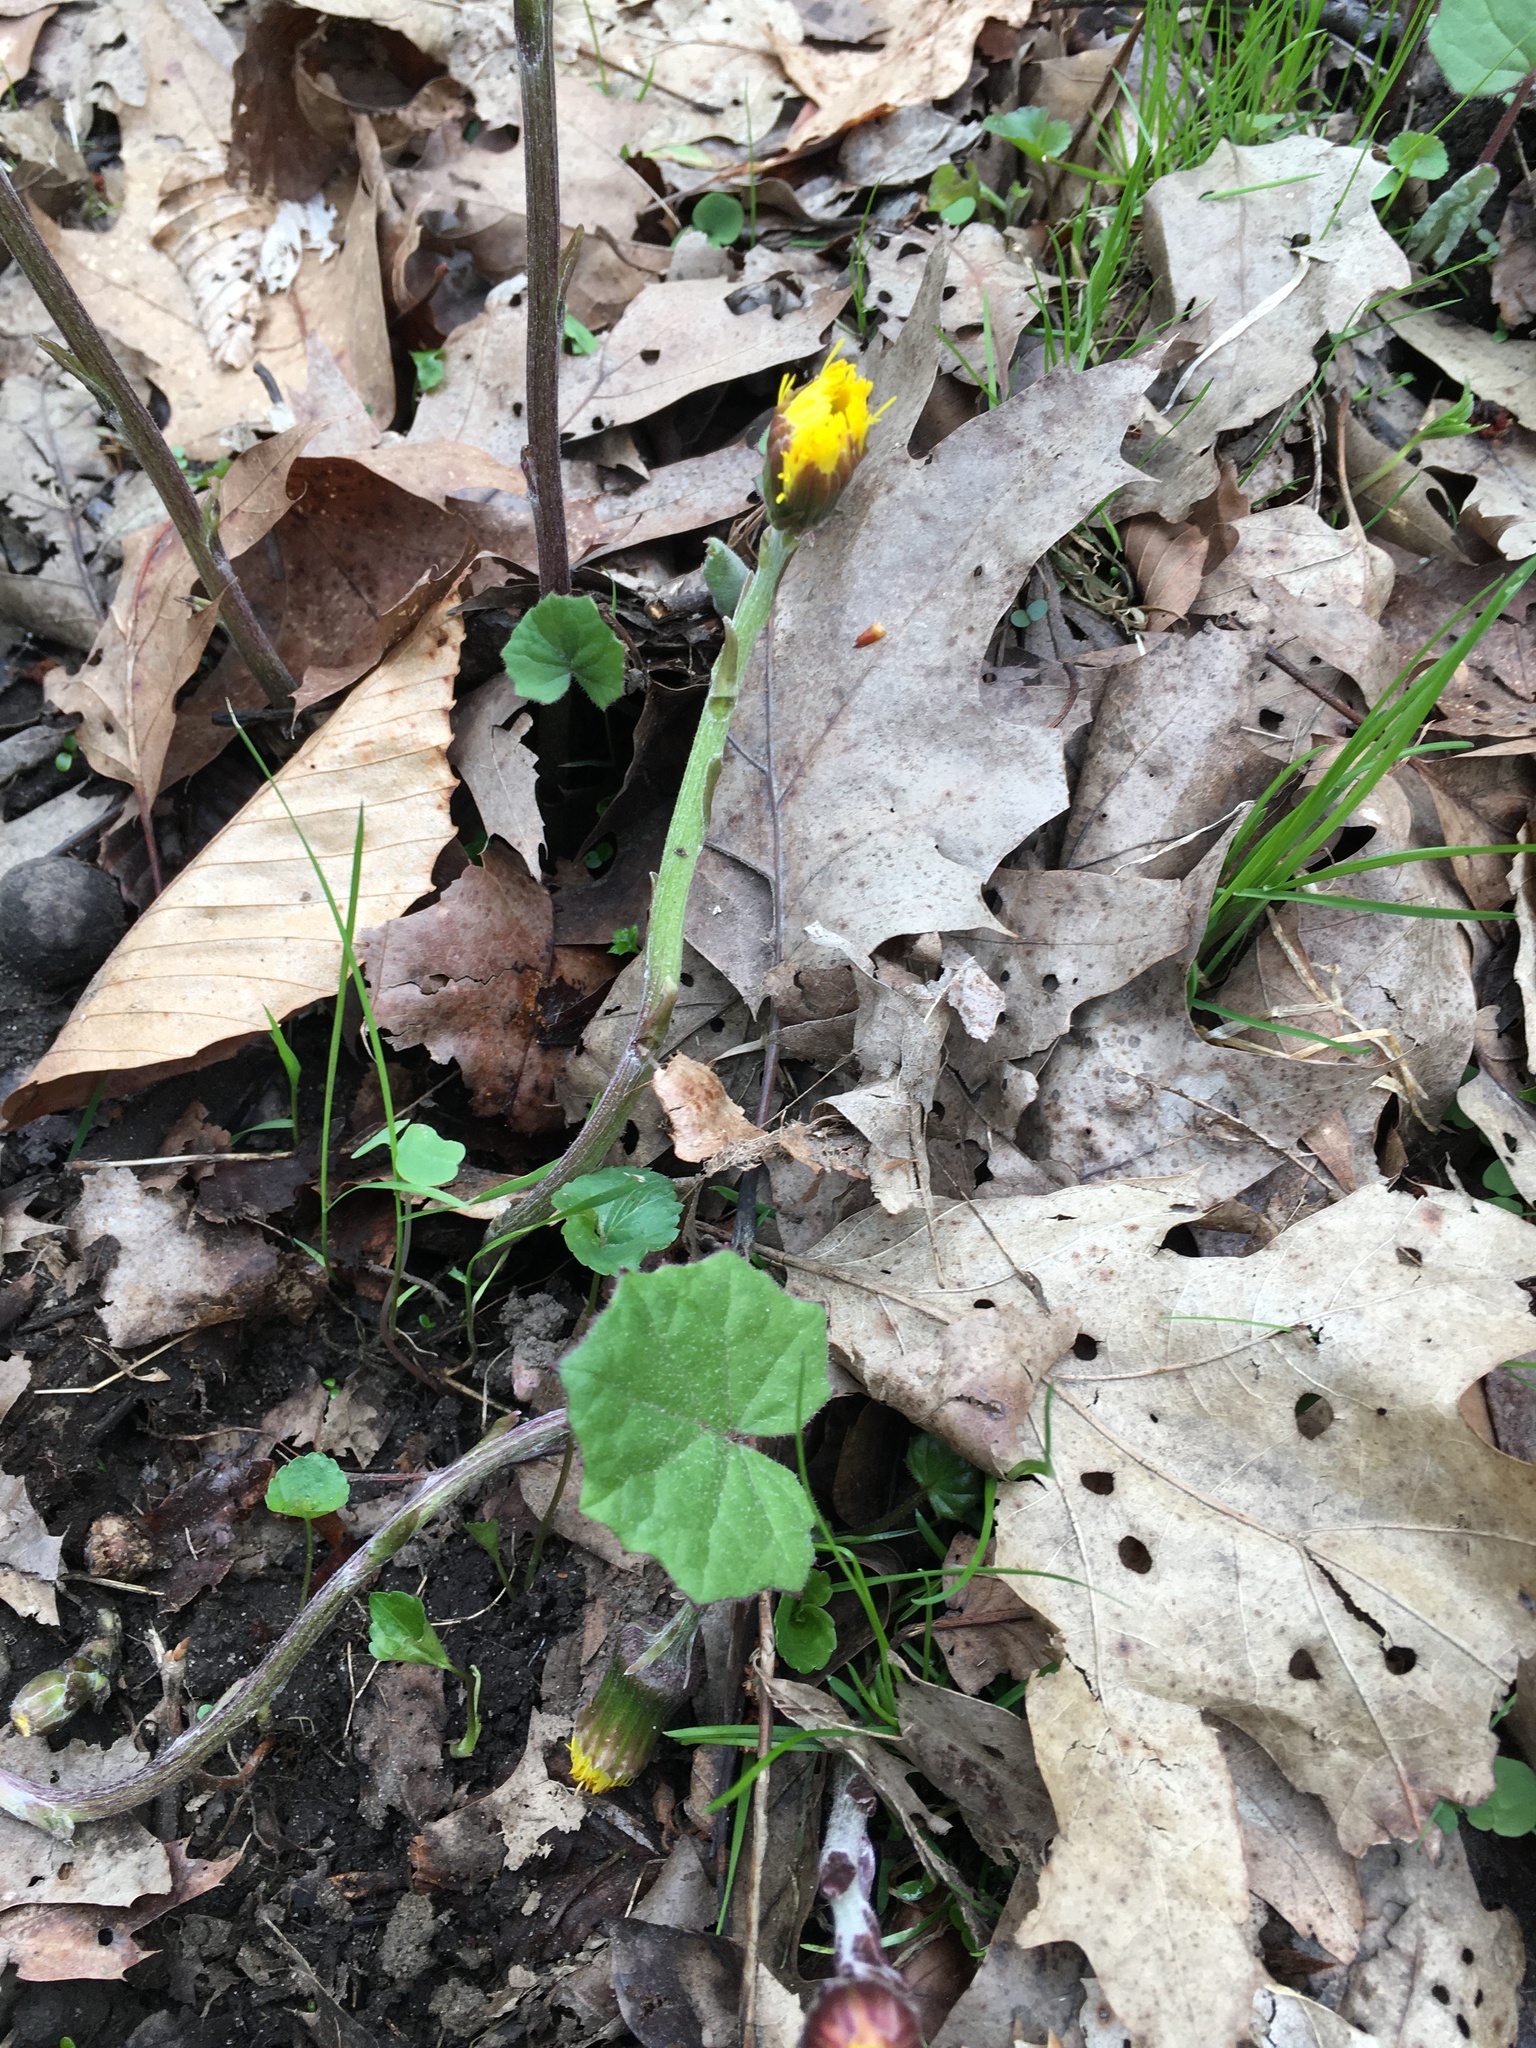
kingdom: Plantae
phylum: Tracheophyta
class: Magnoliopsida
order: Asterales
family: Asteraceae
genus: Tussilago
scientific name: Tussilago farfara
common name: Coltsfoot
